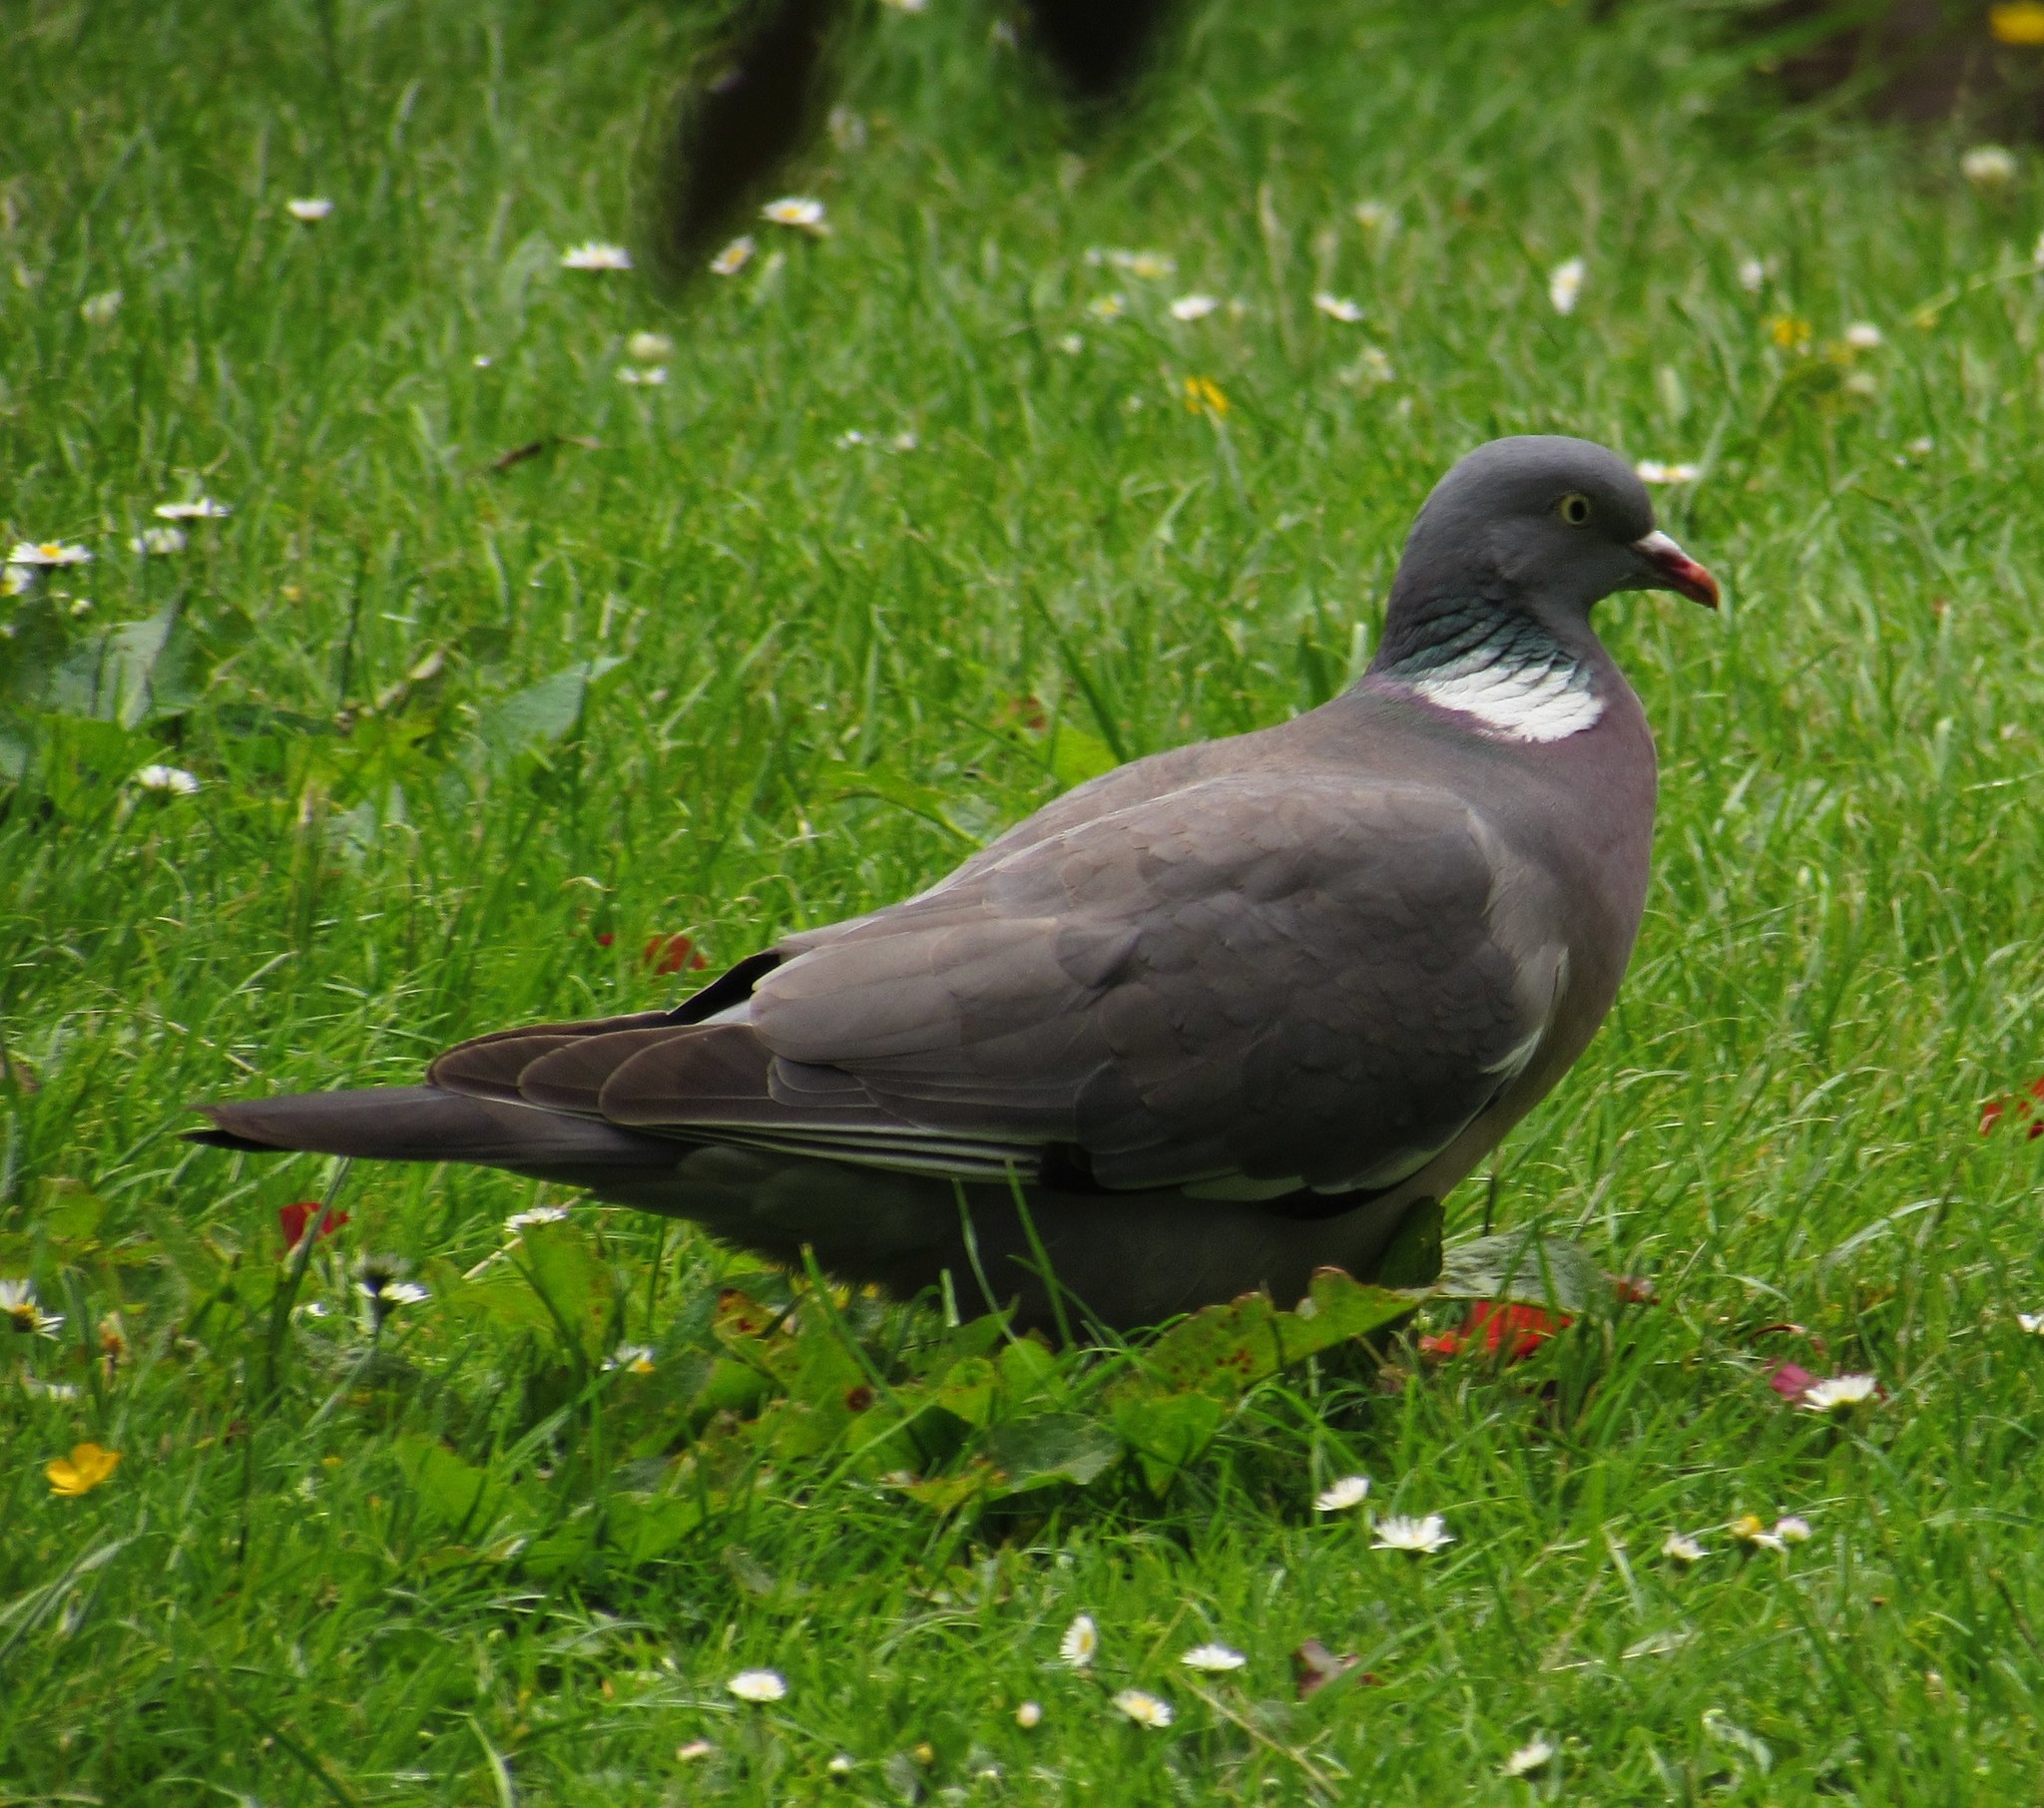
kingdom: Animalia
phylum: Chordata
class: Aves
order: Columbiformes
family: Columbidae
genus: Columba
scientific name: Columba palumbus
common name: Common wood pigeon
